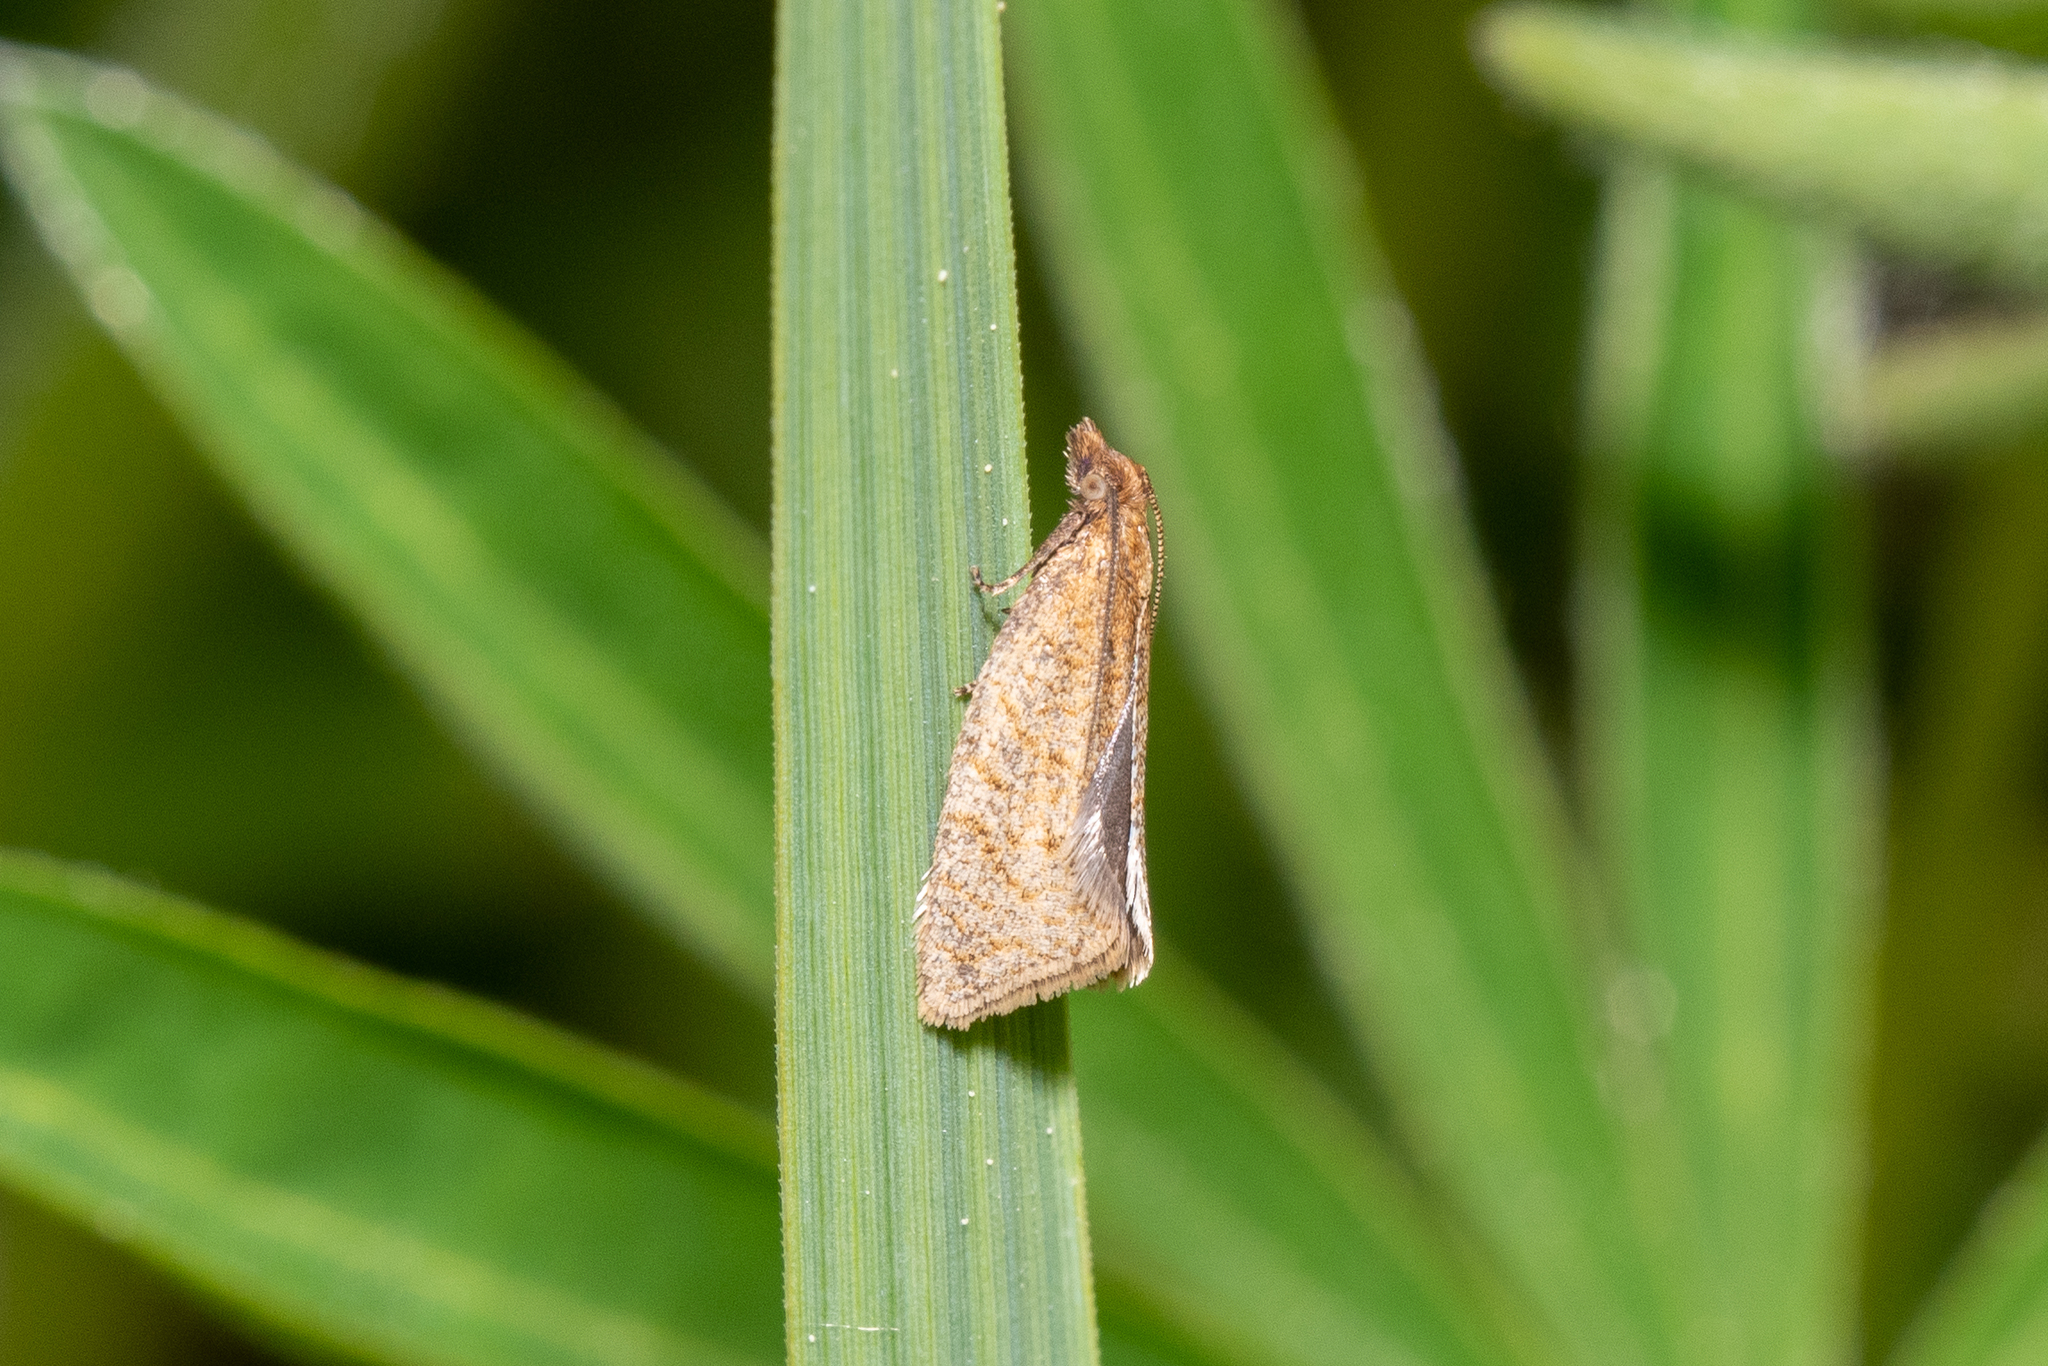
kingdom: Animalia
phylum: Arthropoda
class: Insecta
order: Lepidoptera
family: Tortricidae
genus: Clepsis
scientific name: Clepsis senecionana
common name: Obscure tortrix
